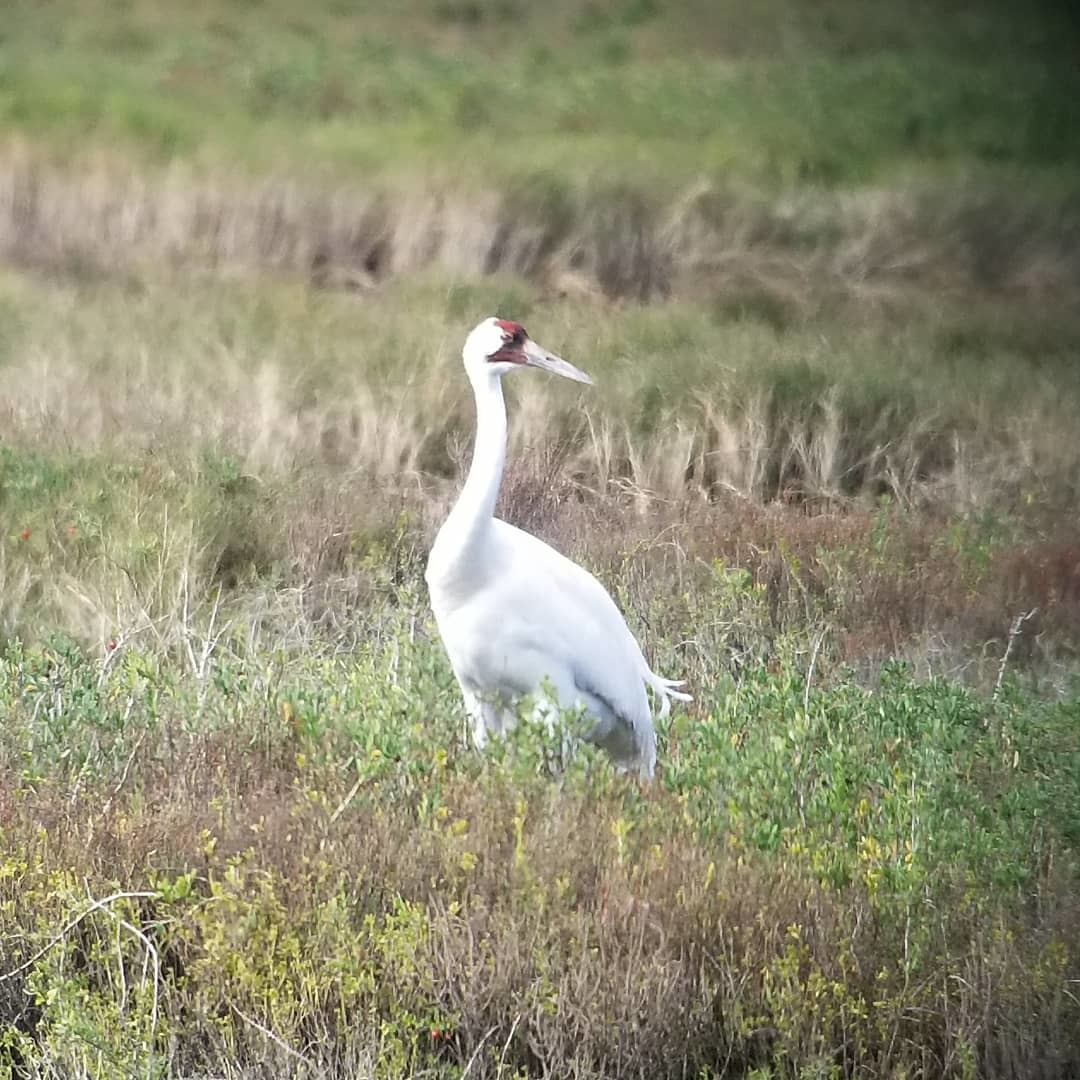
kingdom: Animalia
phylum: Chordata
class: Aves
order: Gruiformes
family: Gruidae
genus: Grus
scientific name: Grus americana
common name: Whooping crane
